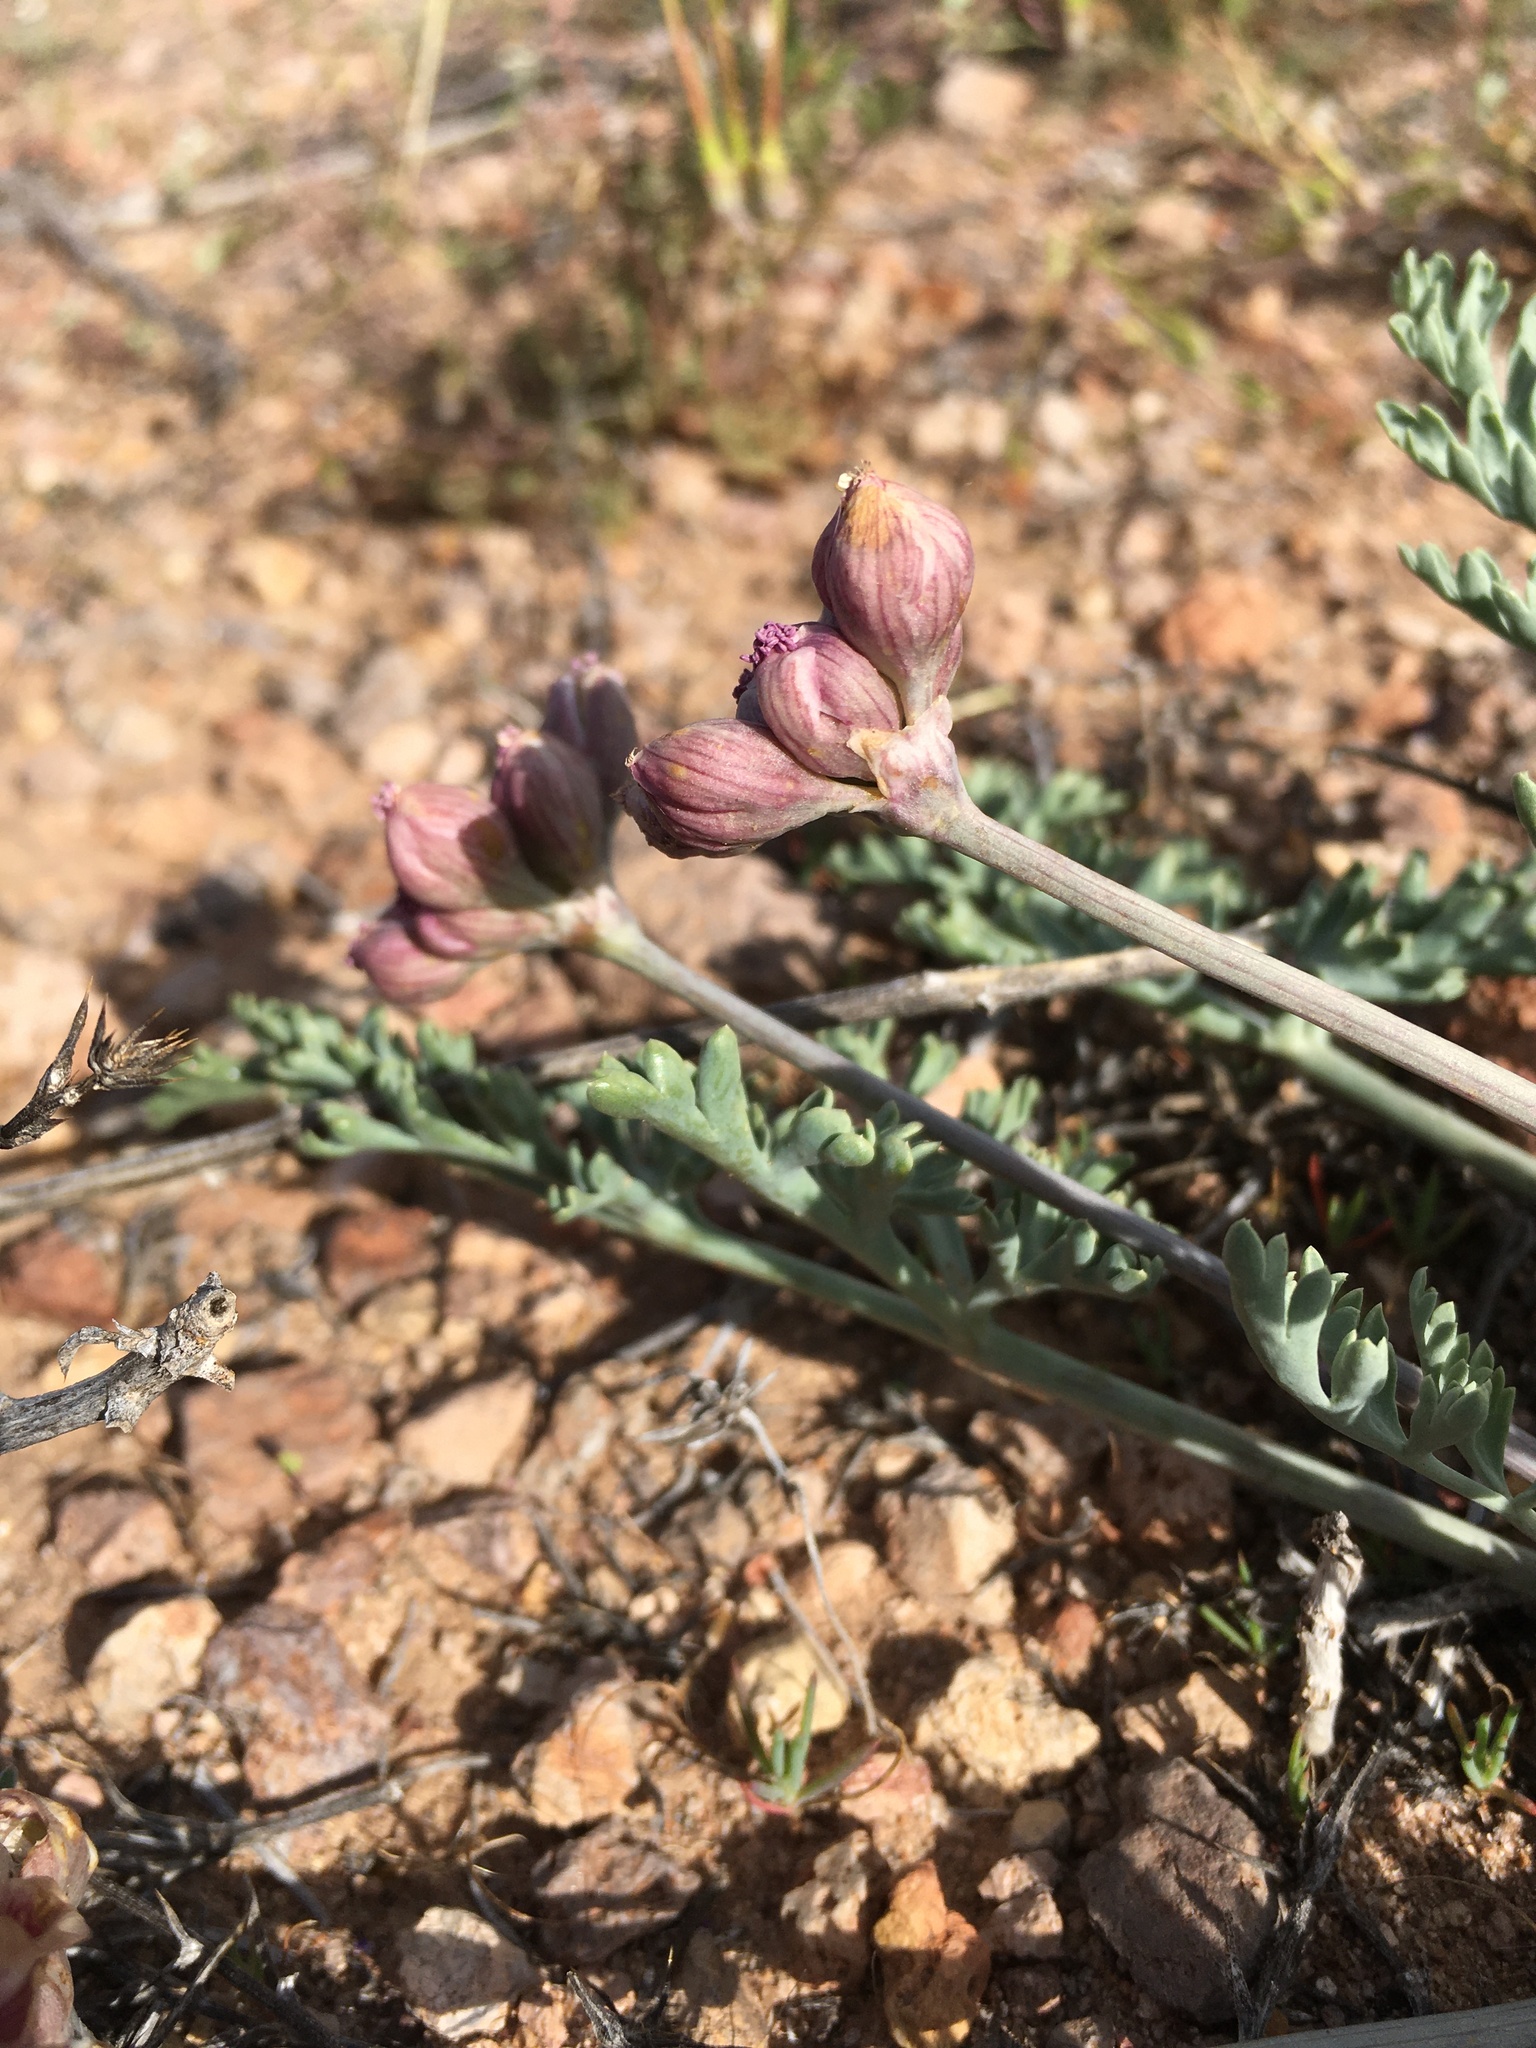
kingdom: Plantae
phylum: Tracheophyta
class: Magnoliopsida
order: Apiales
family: Apiaceae
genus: Vesper
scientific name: Vesper multinervatus
